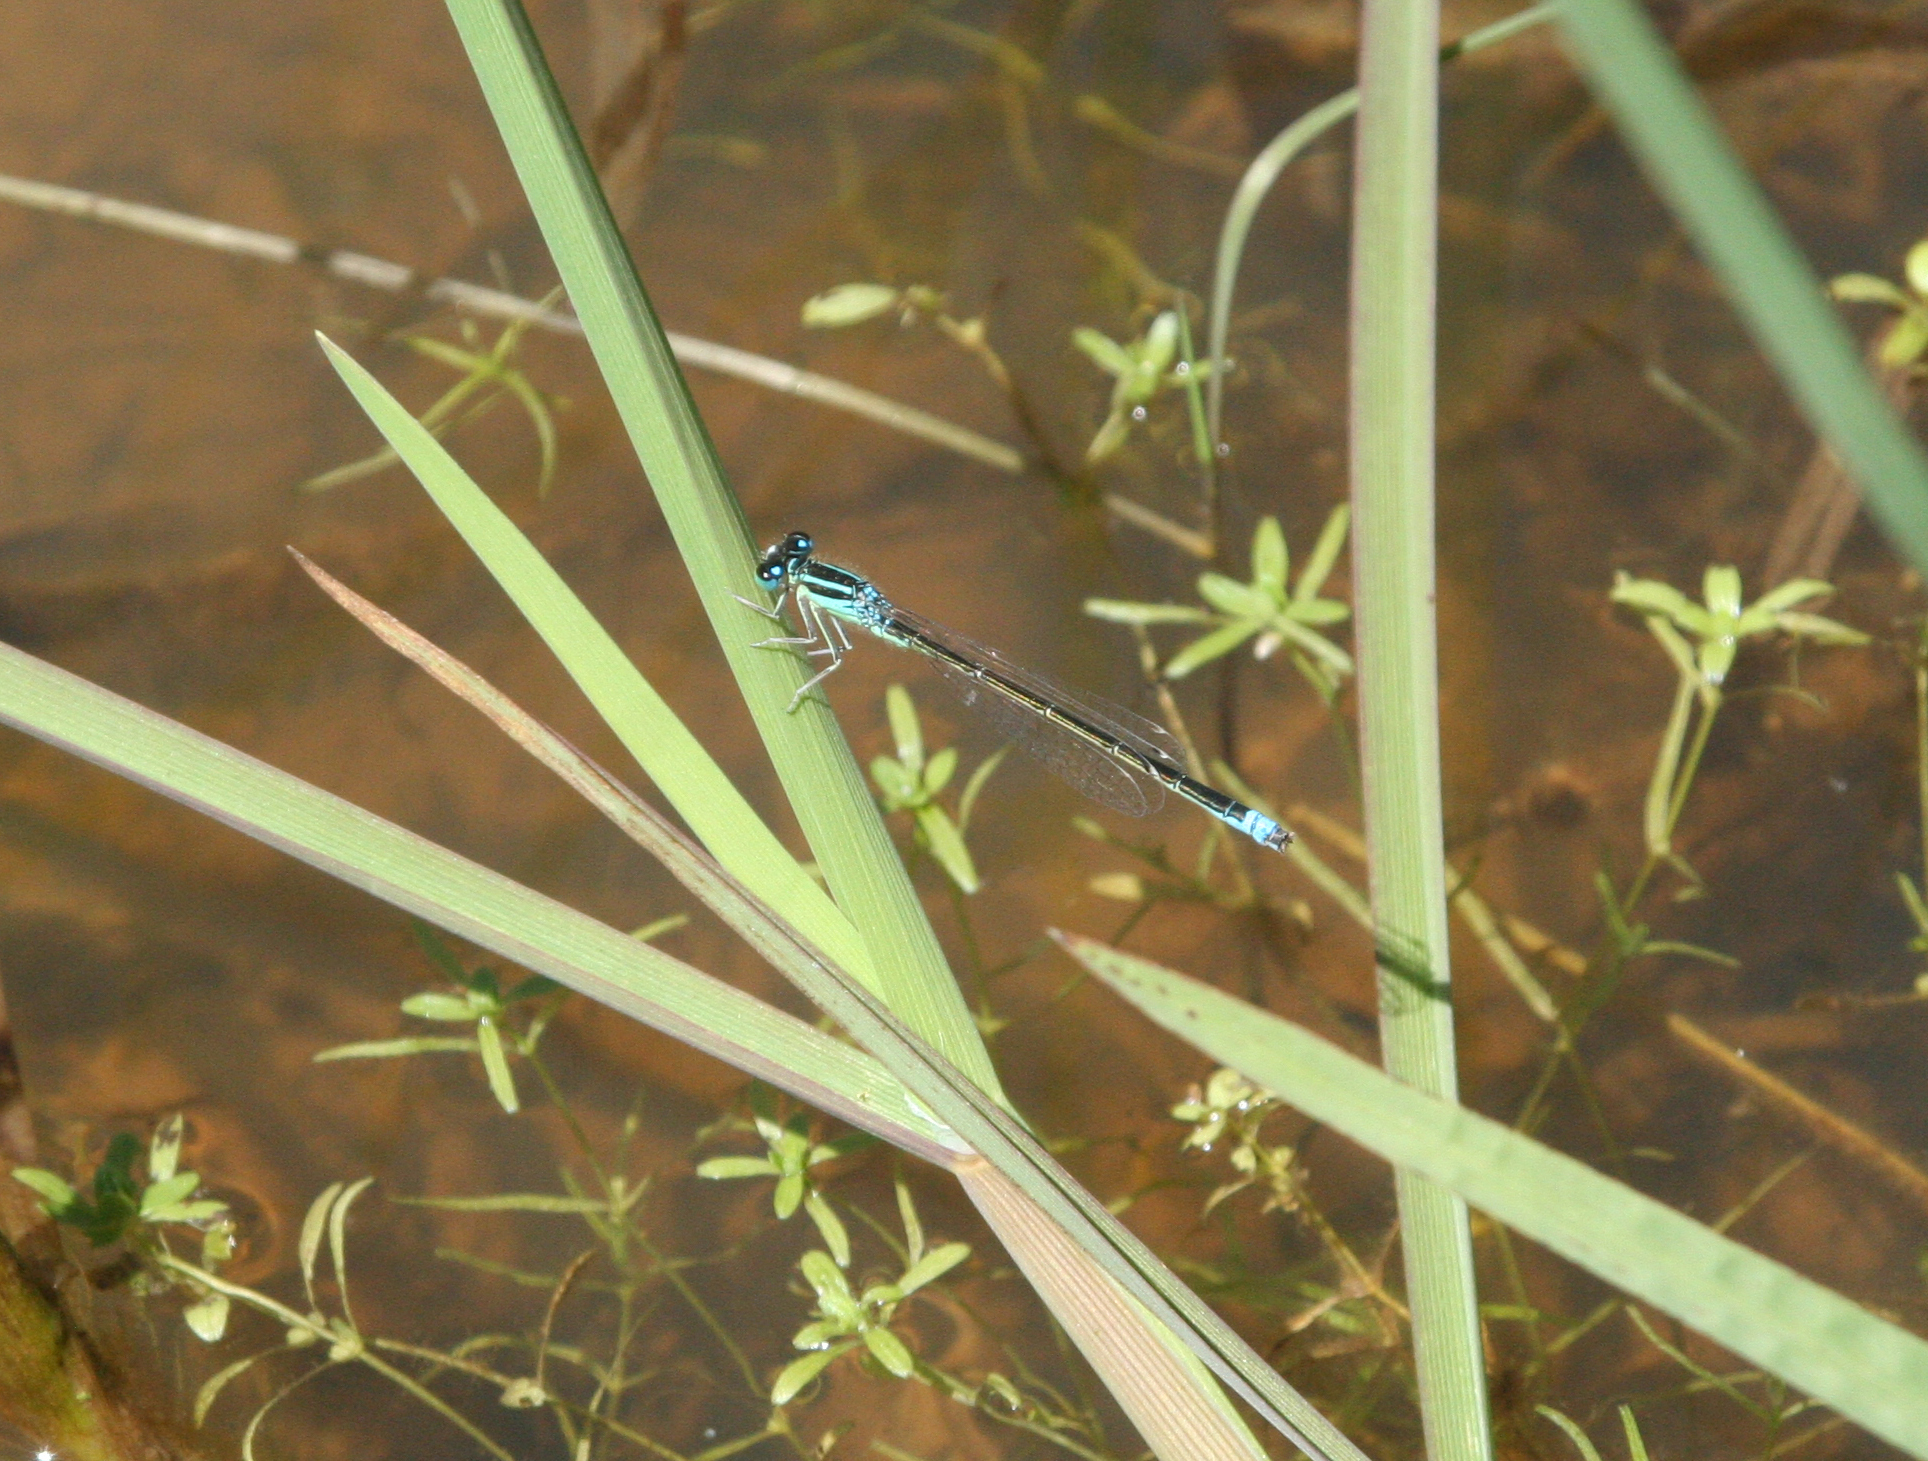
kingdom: Animalia
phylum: Arthropoda
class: Insecta
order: Odonata
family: Coenagrionidae
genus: Ischnura
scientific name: Ischnura pumilio
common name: Scarce blue-tailed damselfly
